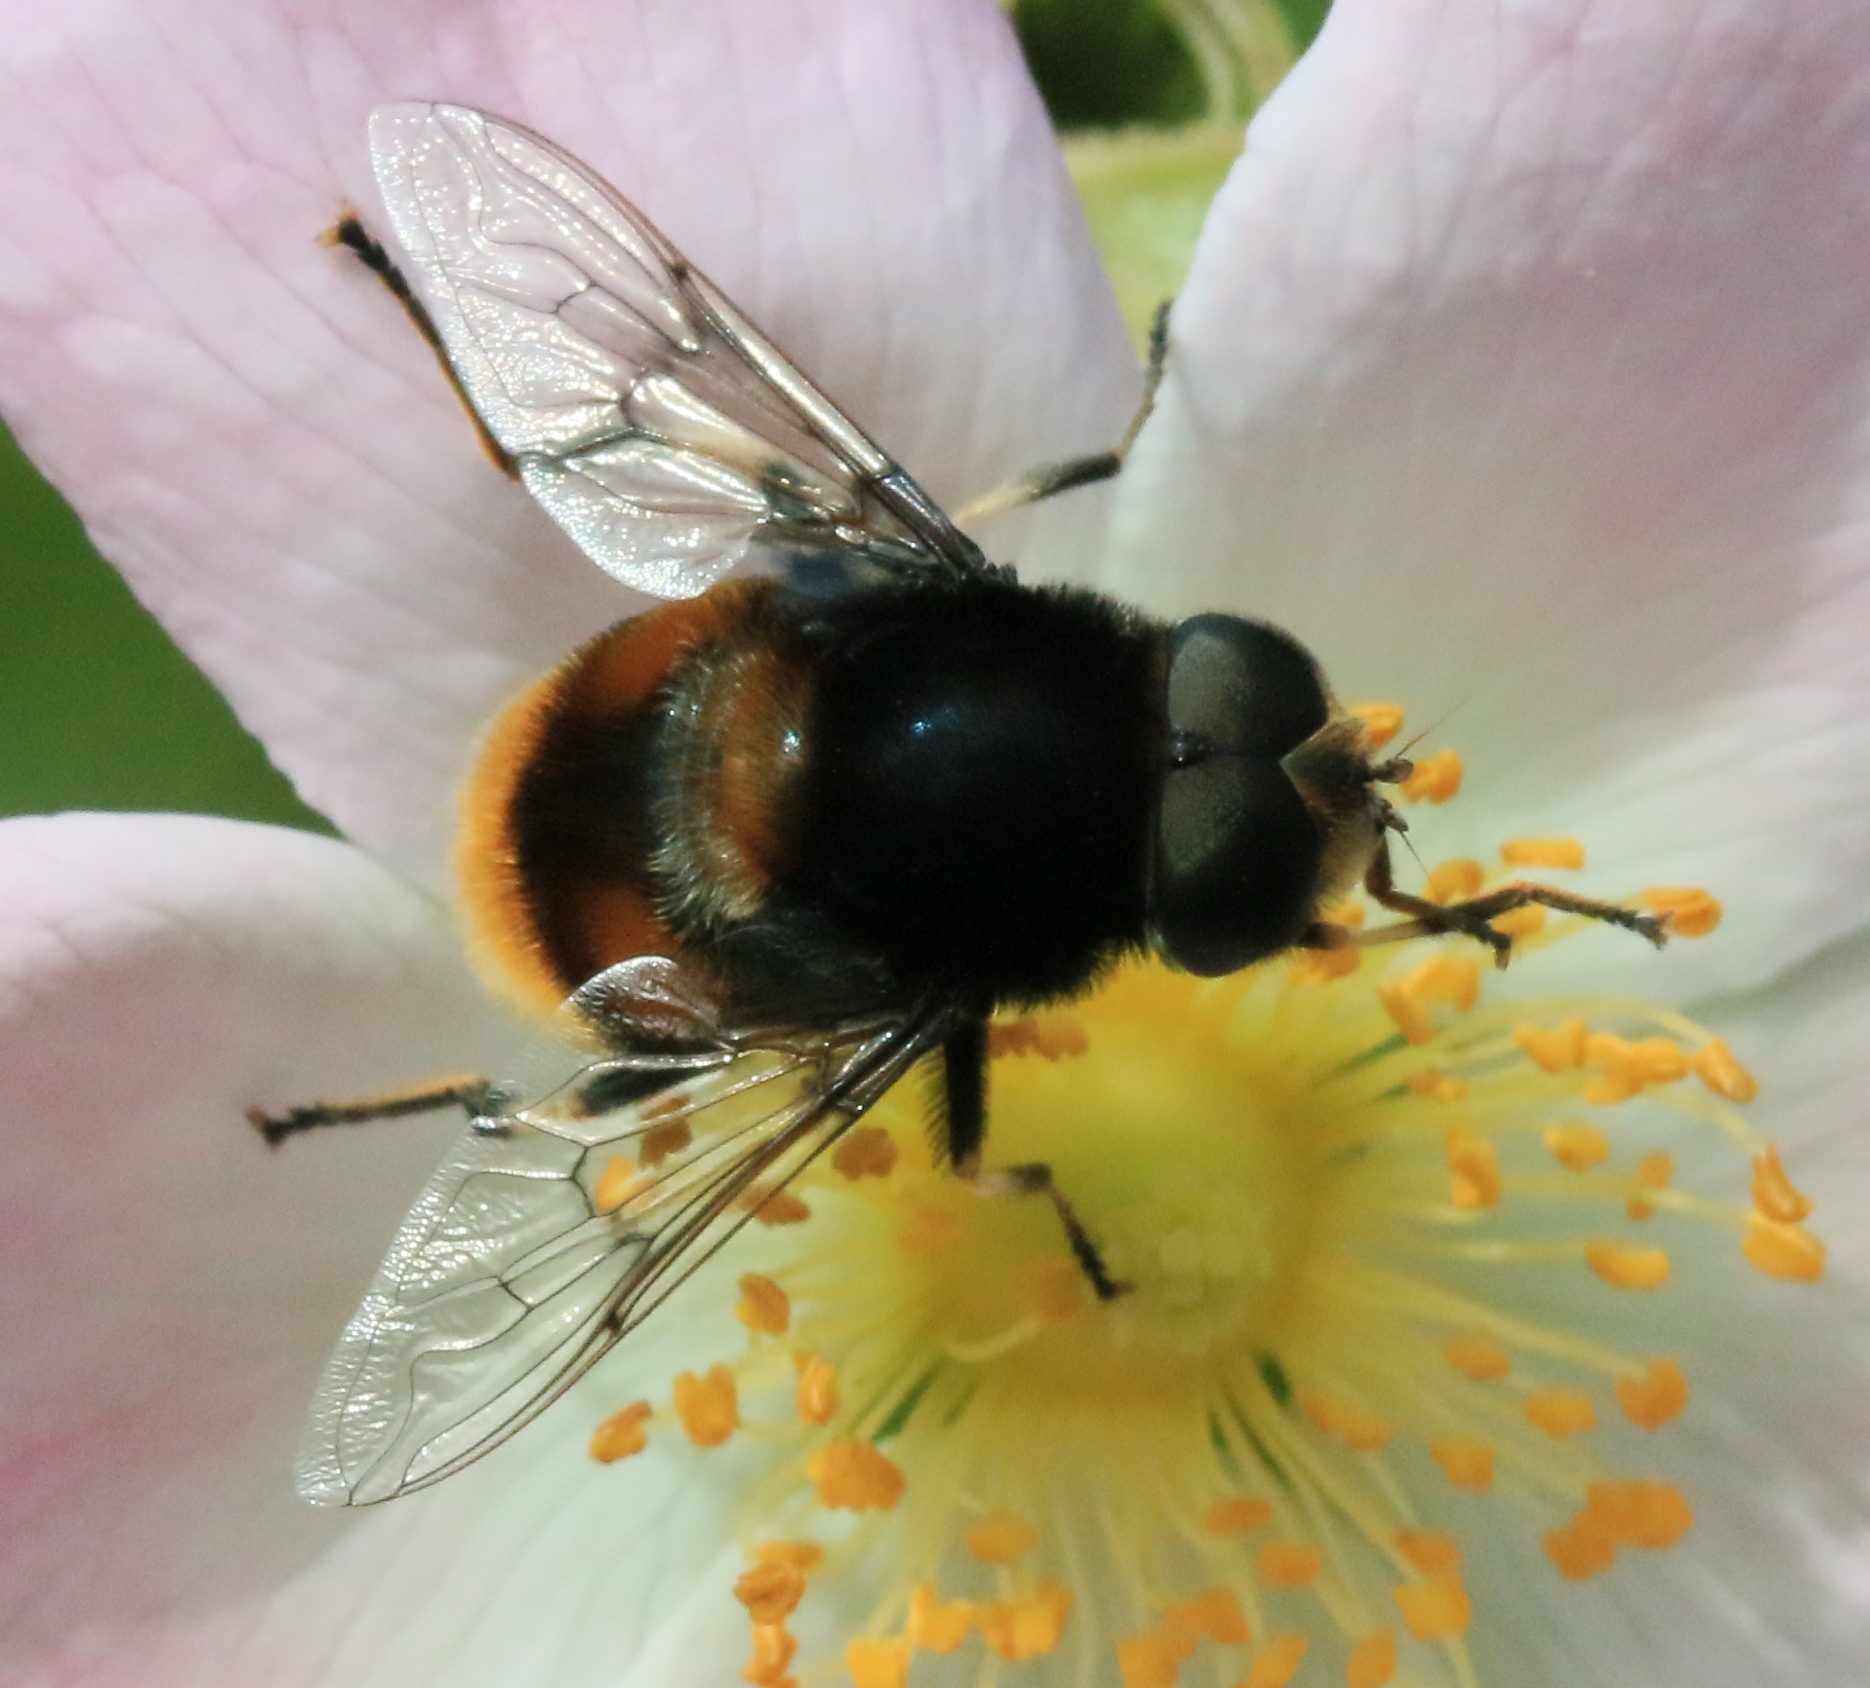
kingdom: Animalia
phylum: Arthropoda
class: Insecta
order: Diptera
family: Syrphidae
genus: Eristalis
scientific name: Eristalis intricaria
